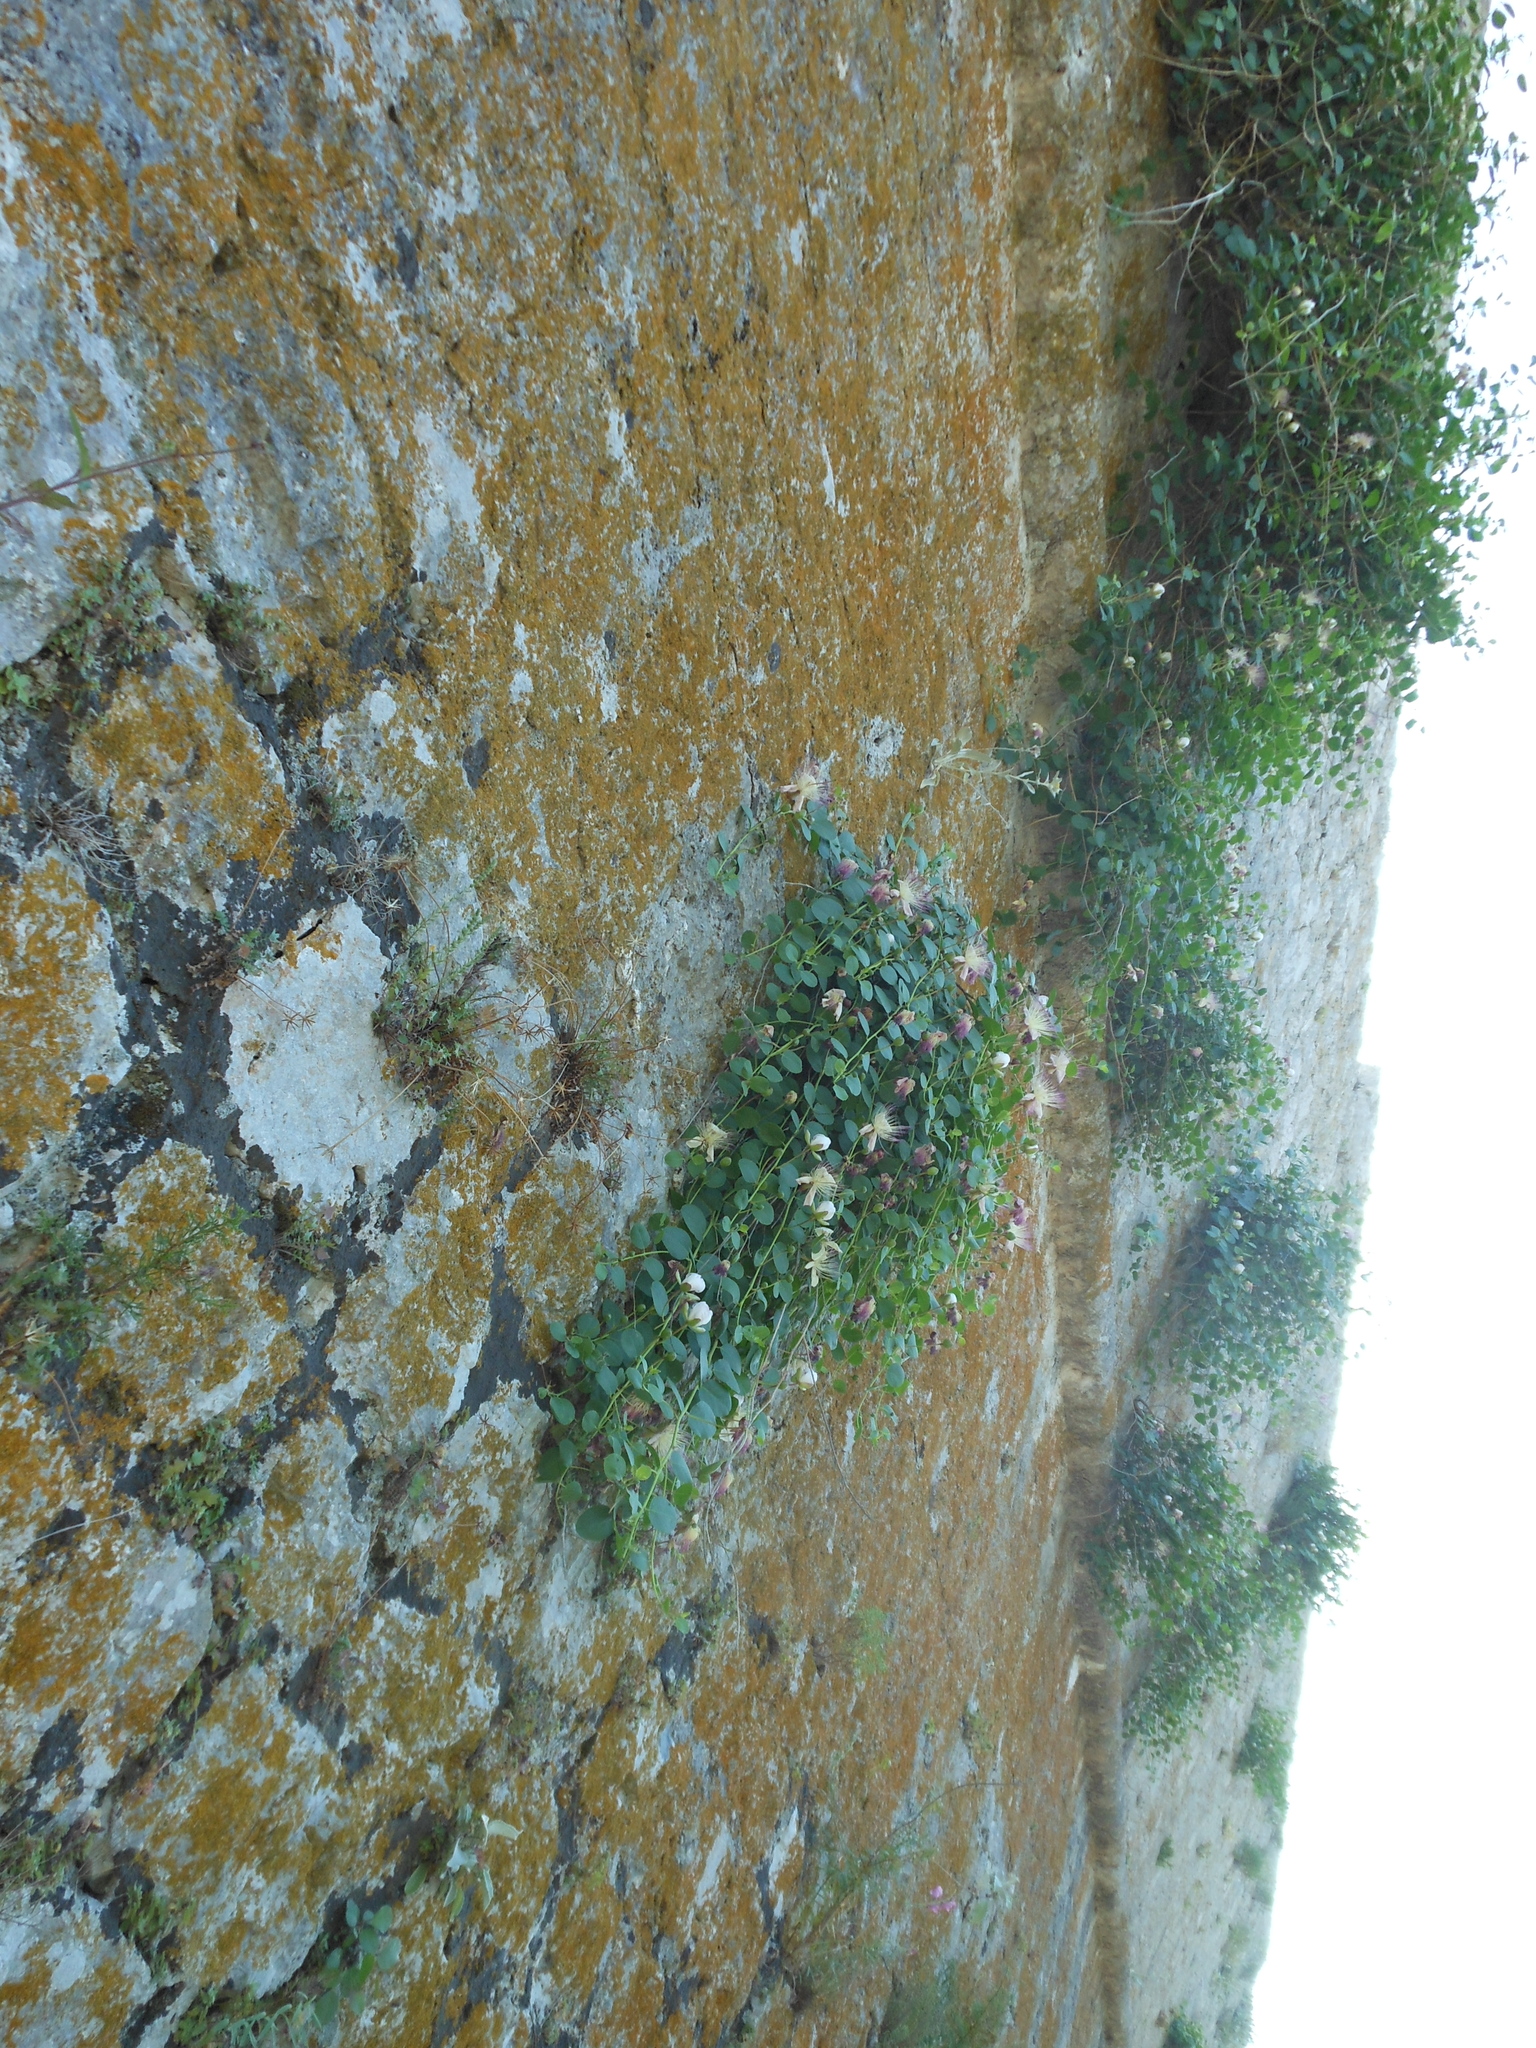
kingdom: Plantae
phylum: Tracheophyta
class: Magnoliopsida
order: Brassicales
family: Capparaceae
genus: Capparis
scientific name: Capparis orientalis
